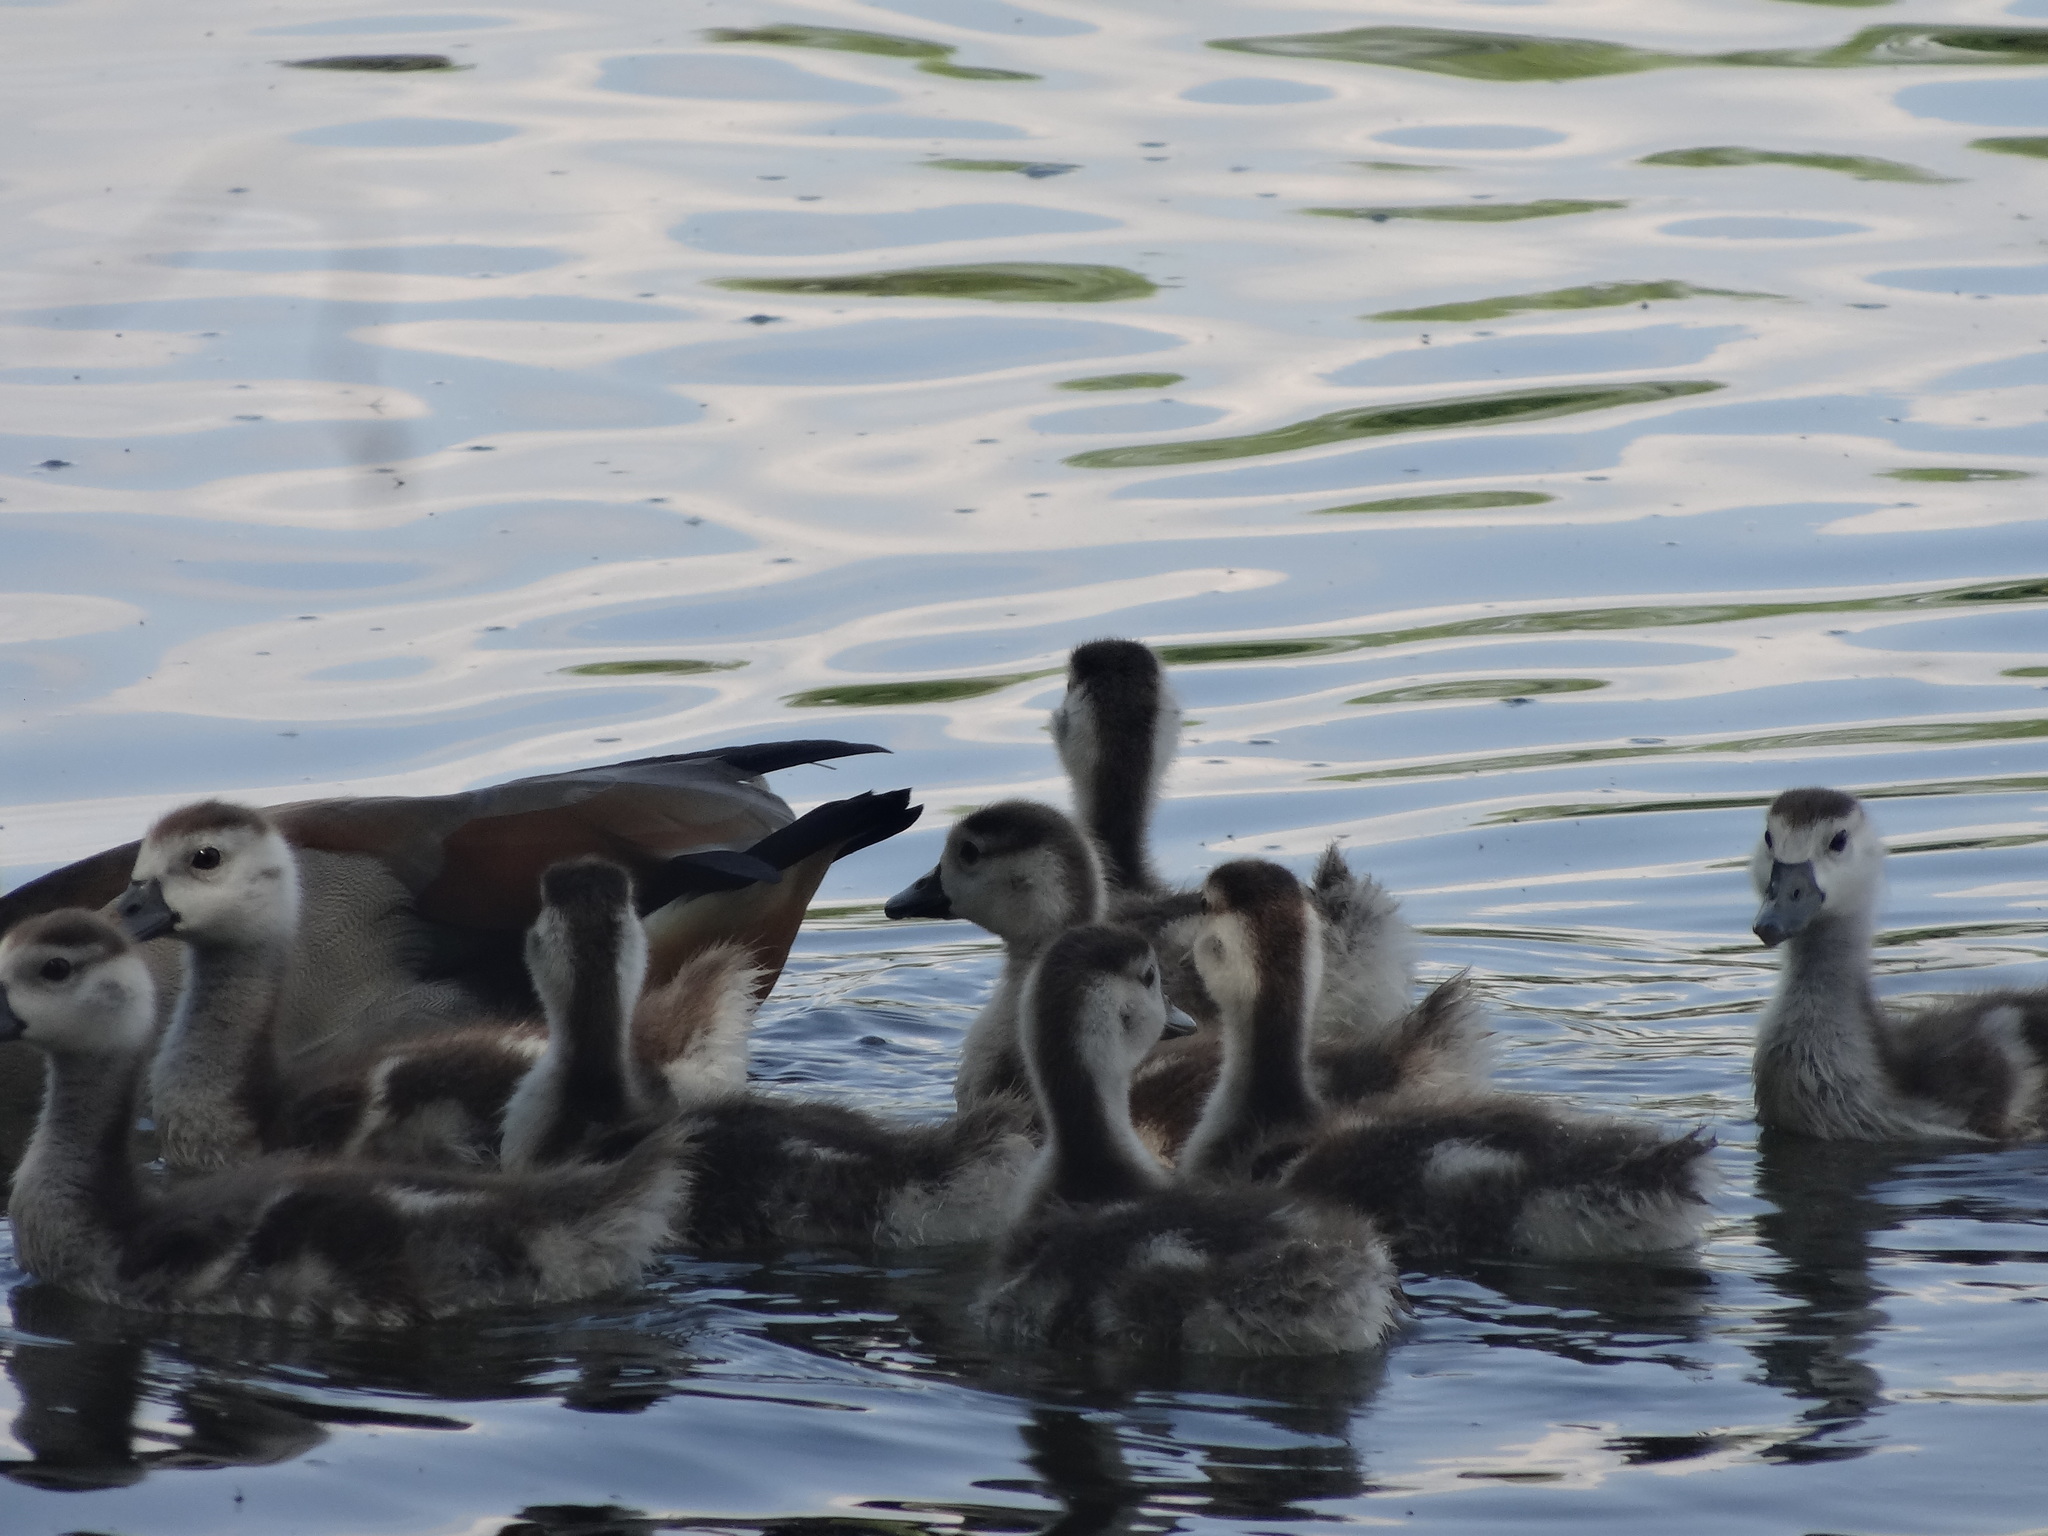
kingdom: Animalia
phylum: Chordata
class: Aves
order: Anseriformes
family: Anatidae
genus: Alopochen
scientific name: Alopochen aegyptiaca
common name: Egyptian goose
